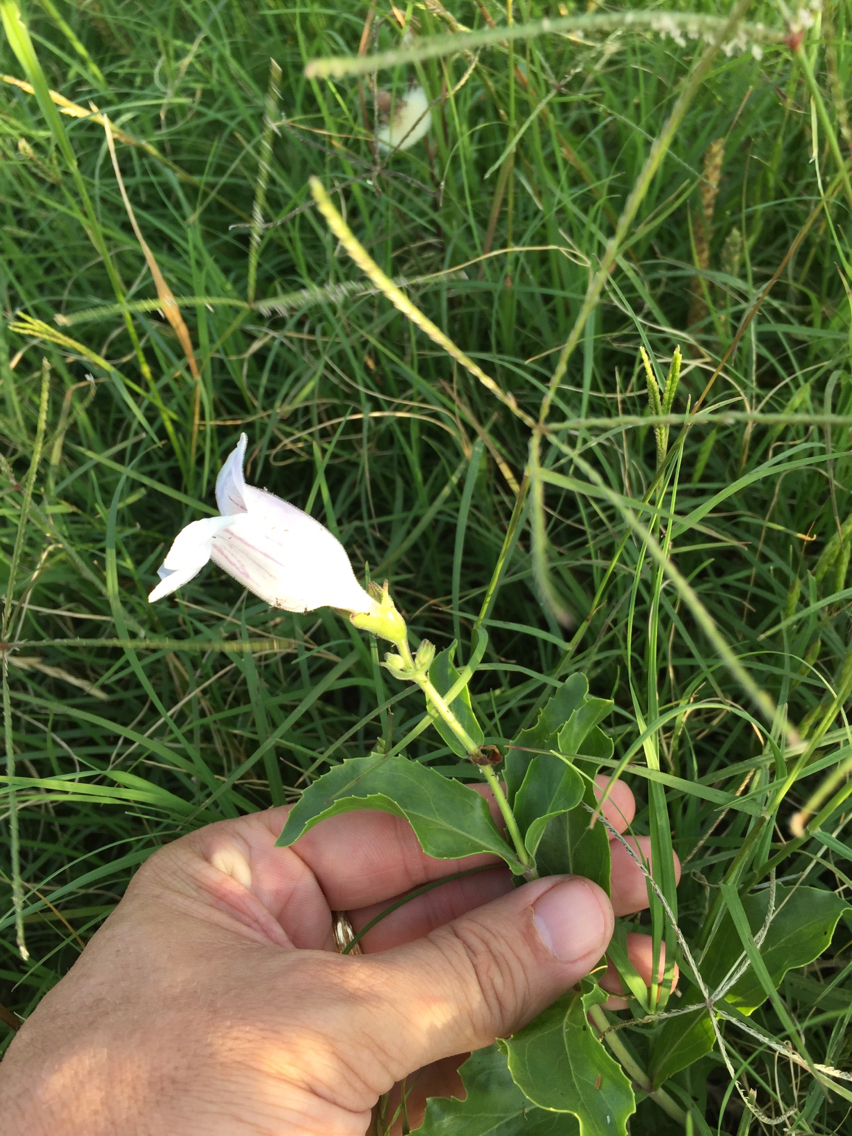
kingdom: Plantae
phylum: Tracheophyta
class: Magnoliopsida
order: Lamiales
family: Plantaginaceae
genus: Penstemon
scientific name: Penstemon cobaea
